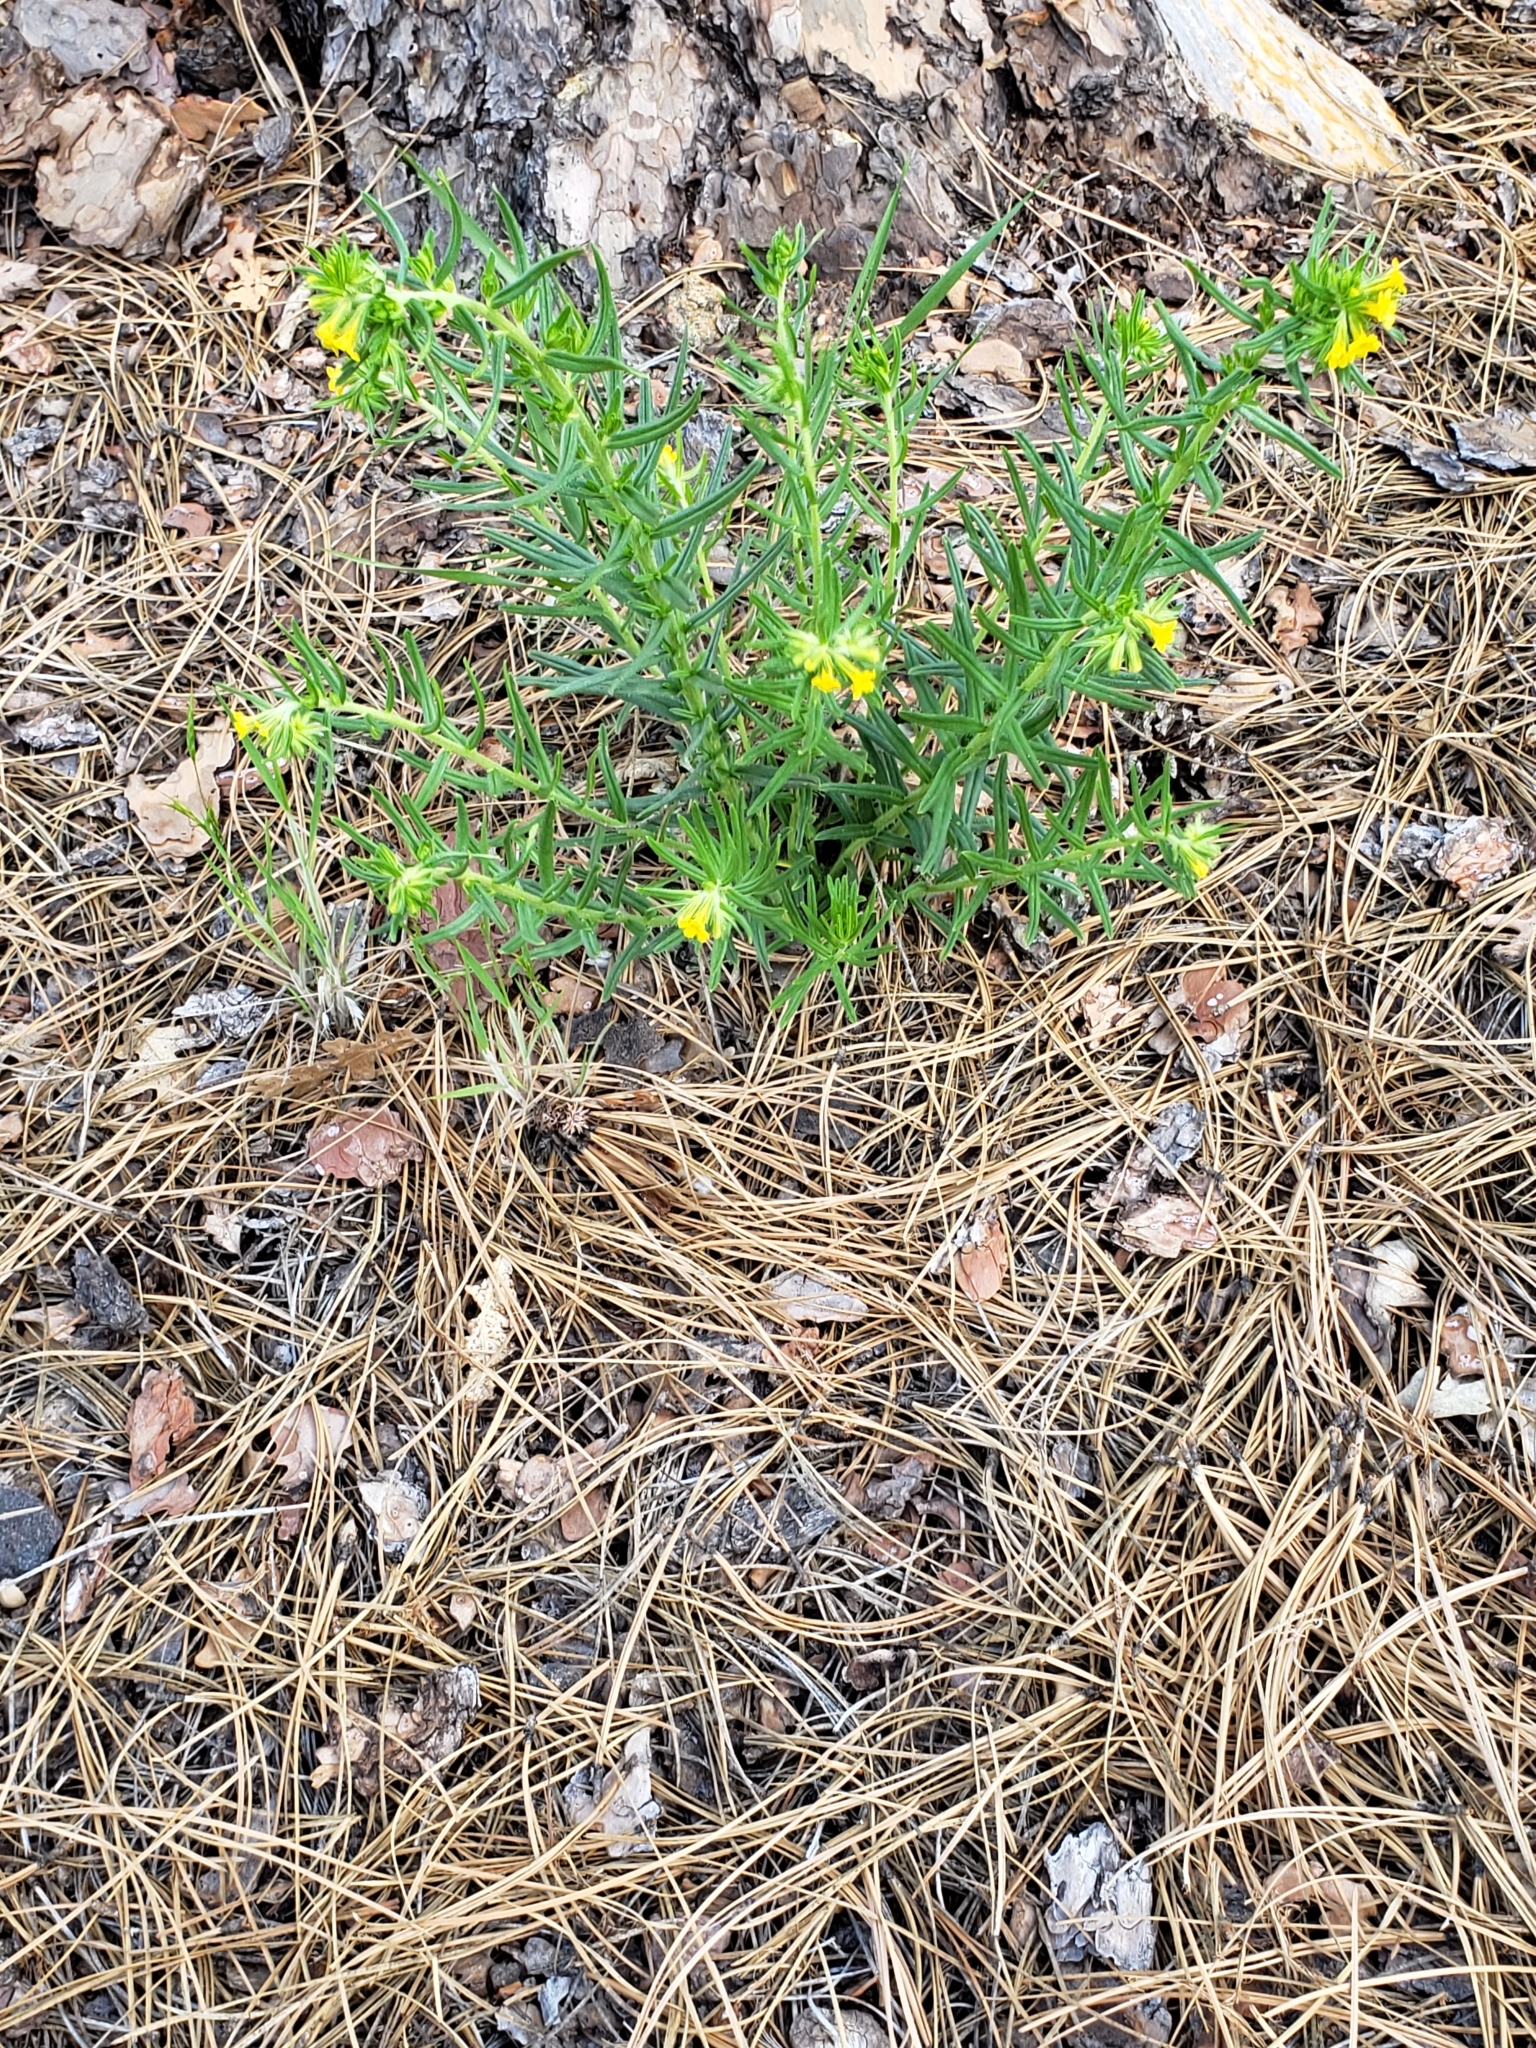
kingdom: Plantae
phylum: Tracheophyta
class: Magnoliopsida
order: Boraginales
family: Boraginaceae
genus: Lithospermum
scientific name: Lithospermum multiflorum
